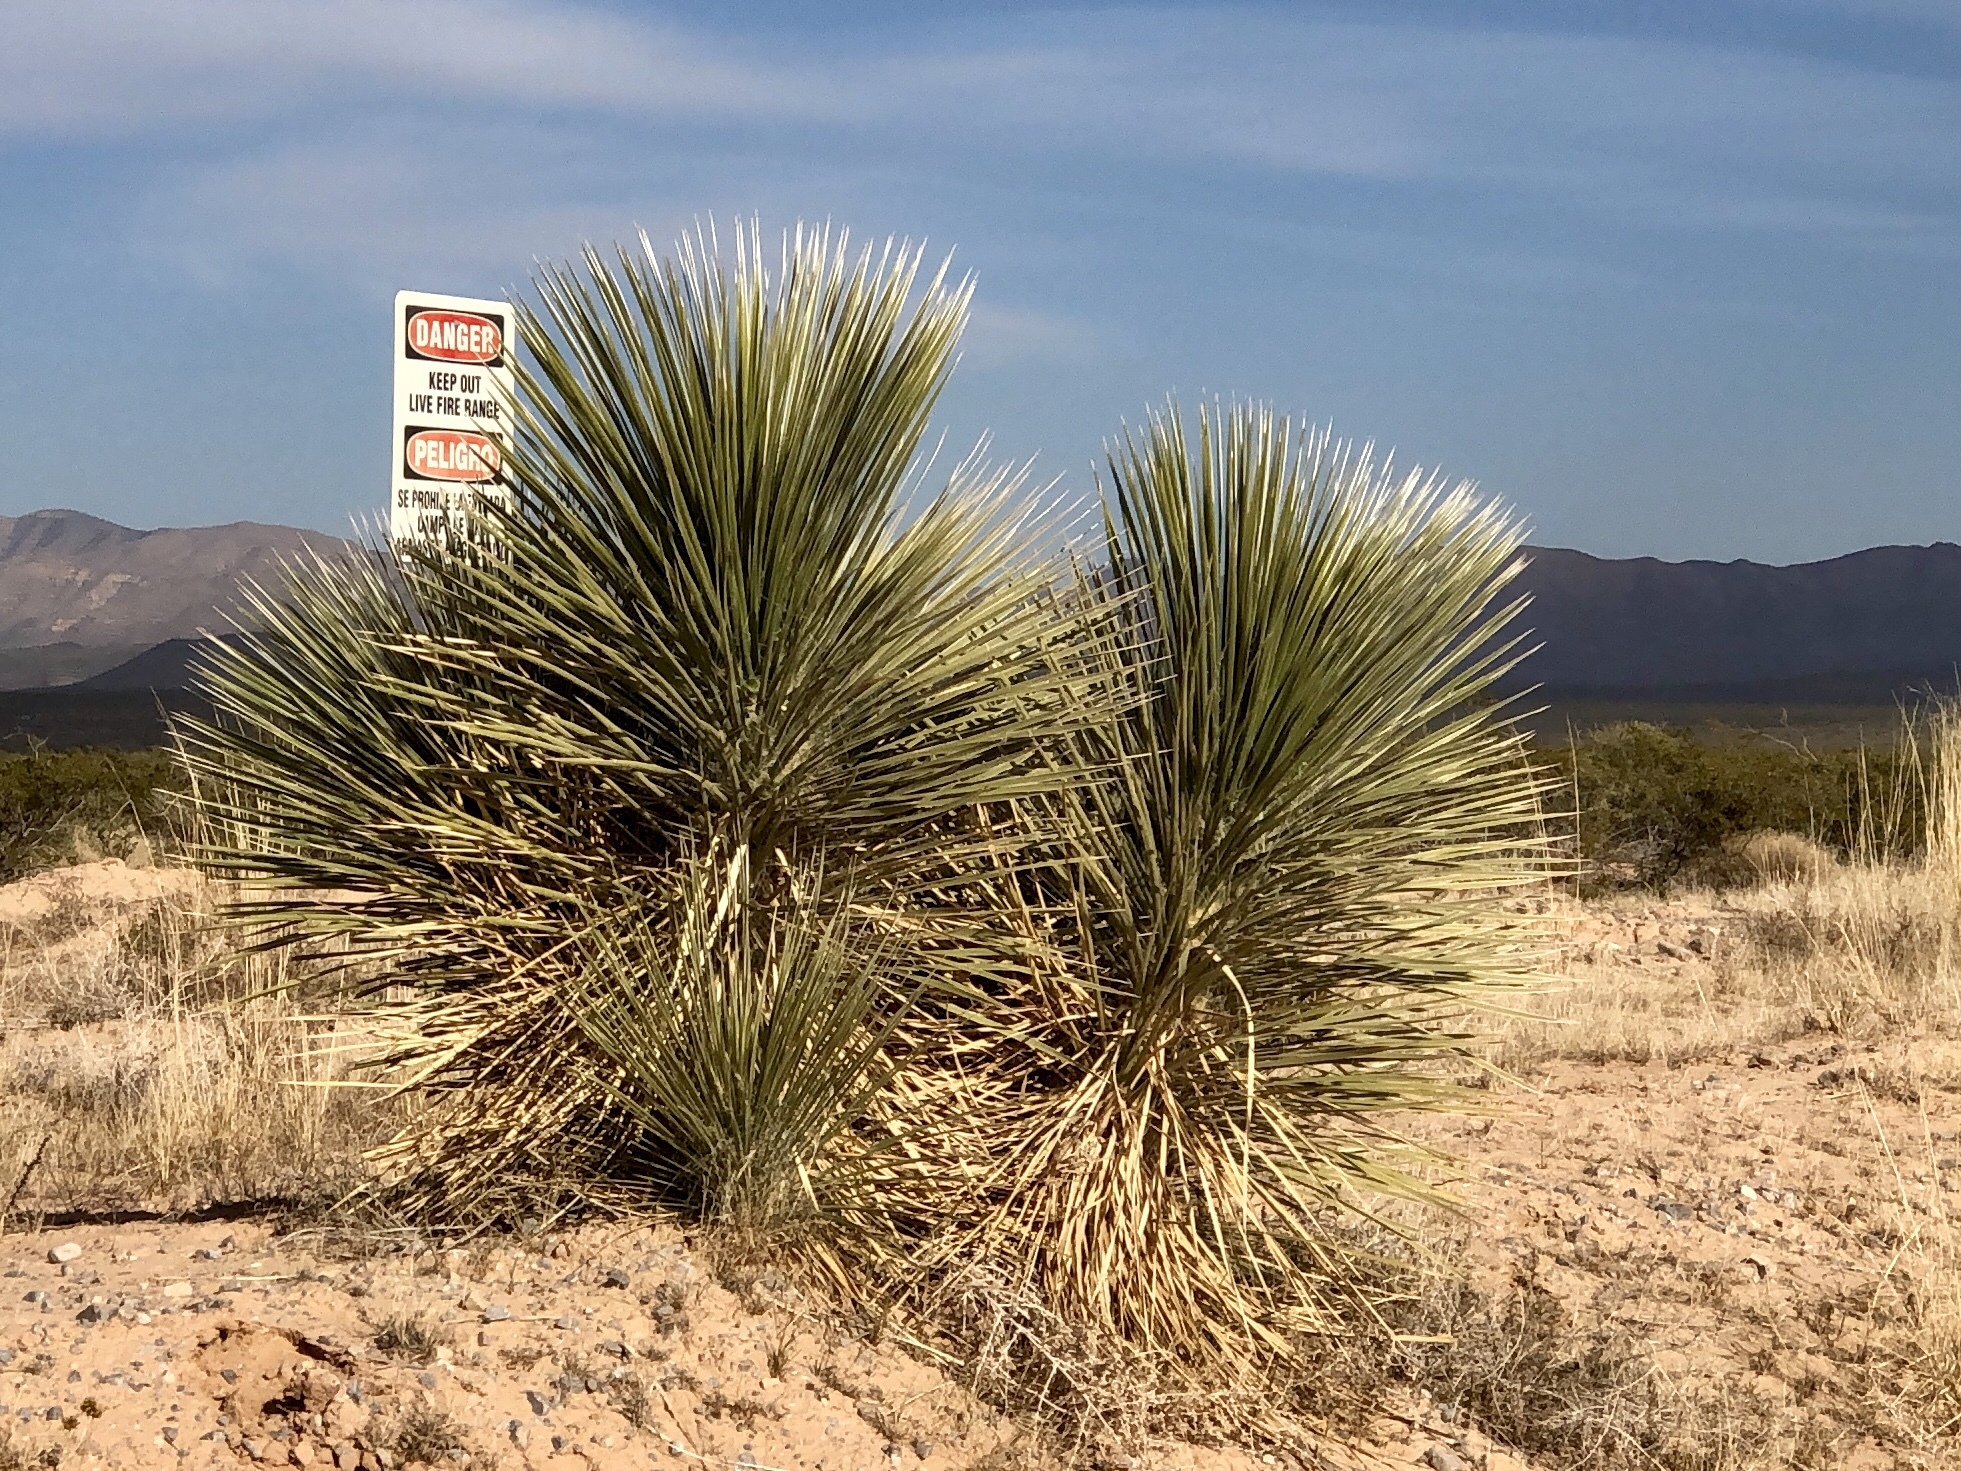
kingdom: Plantae
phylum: Tracheophyta
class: Liliopsida
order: Asparagales
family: Asparagaceae
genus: Yucca
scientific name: Yucca elata
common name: Palmella
